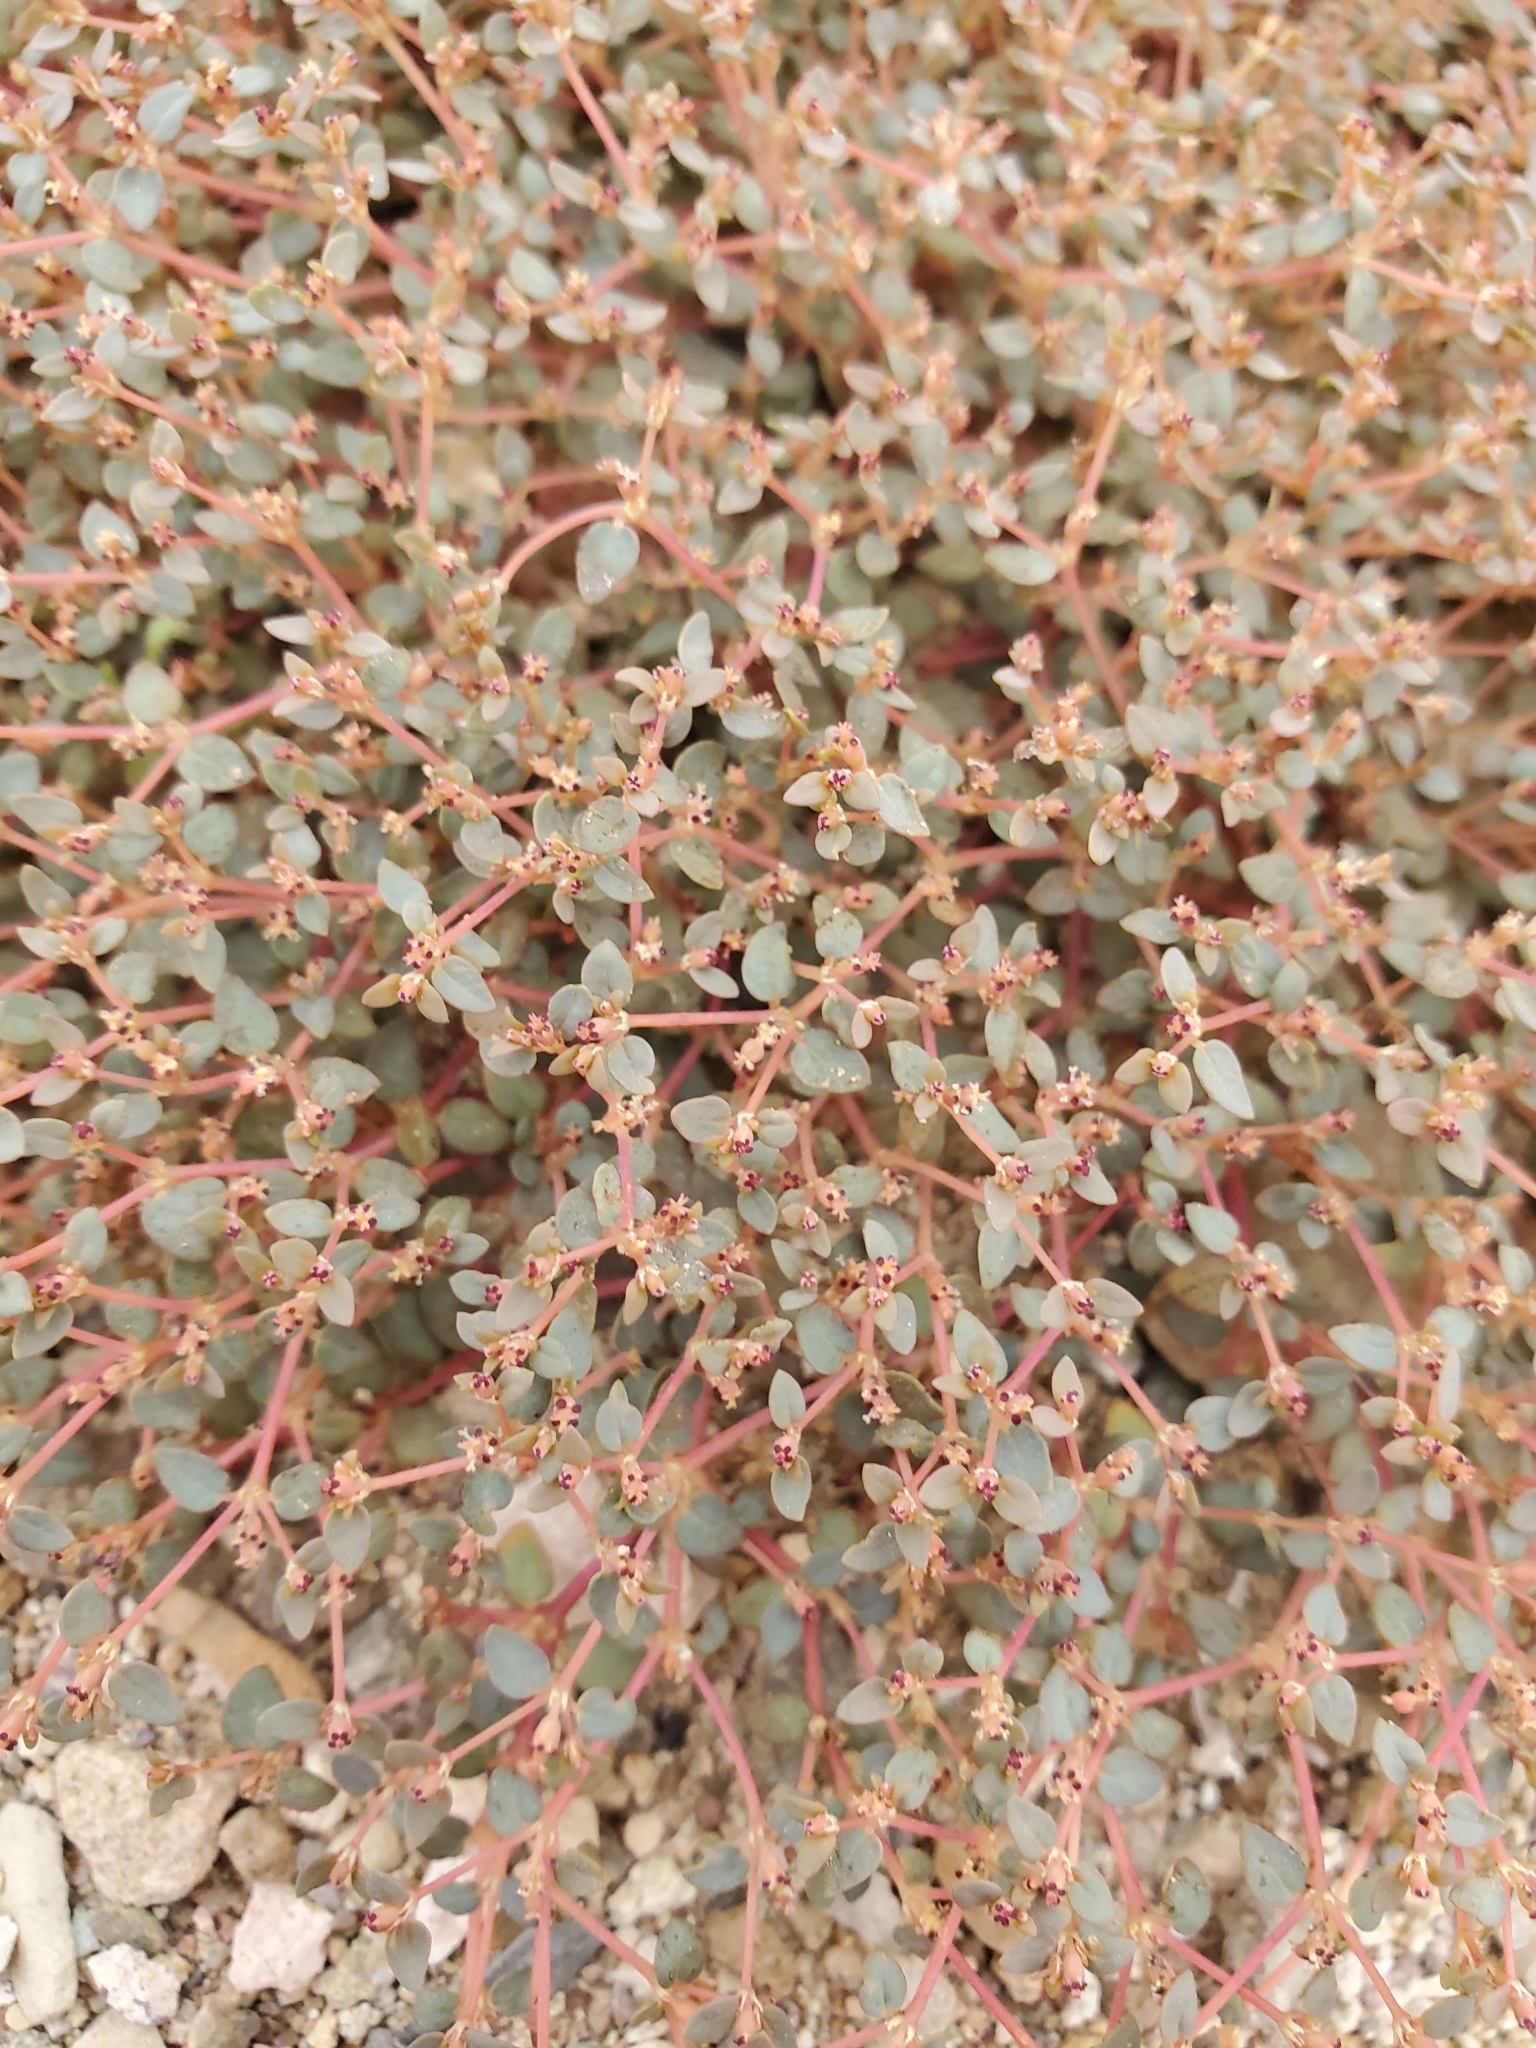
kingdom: Plantae
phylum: Tracheophyta
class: Magnoliopsida
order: Malpighiales
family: Euphorbiaceae
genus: Euphorbia
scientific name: Euphorbia parishii
